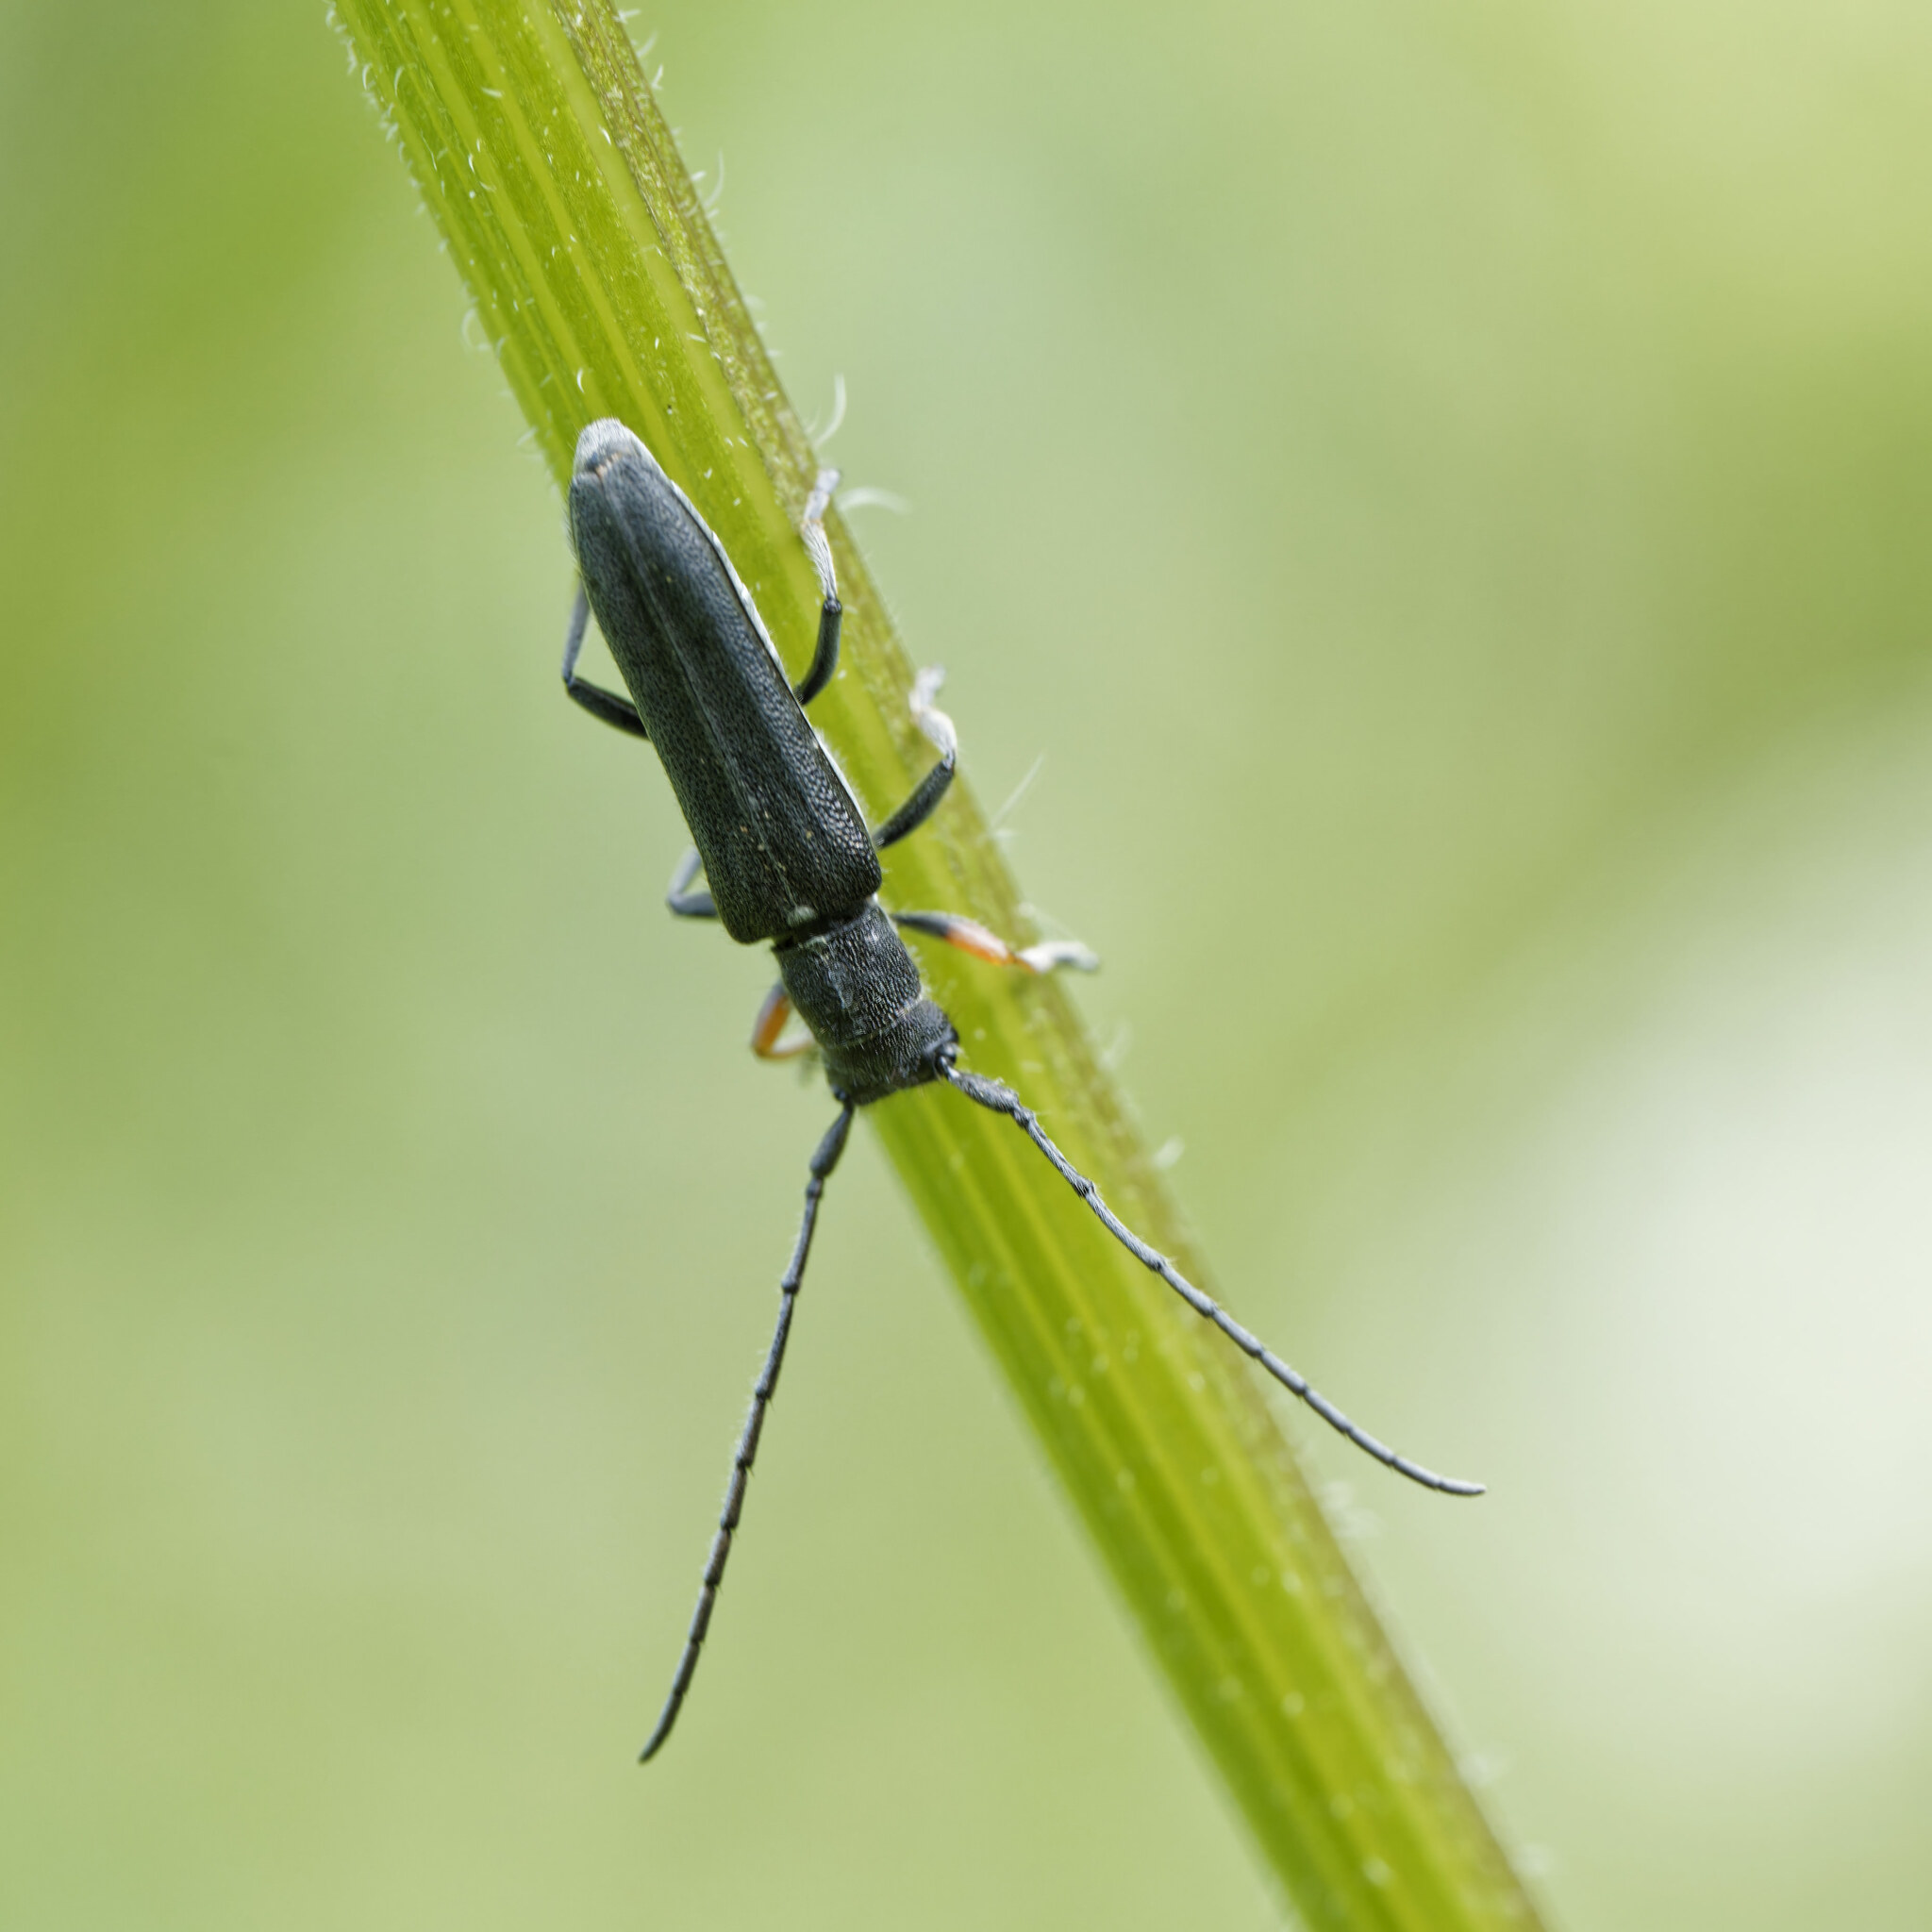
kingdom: Animalia
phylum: Arthropoda
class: Insecta
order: Coleoptera
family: Cerambycidae
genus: Phytoecia
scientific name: Phytoecia cylindrica
